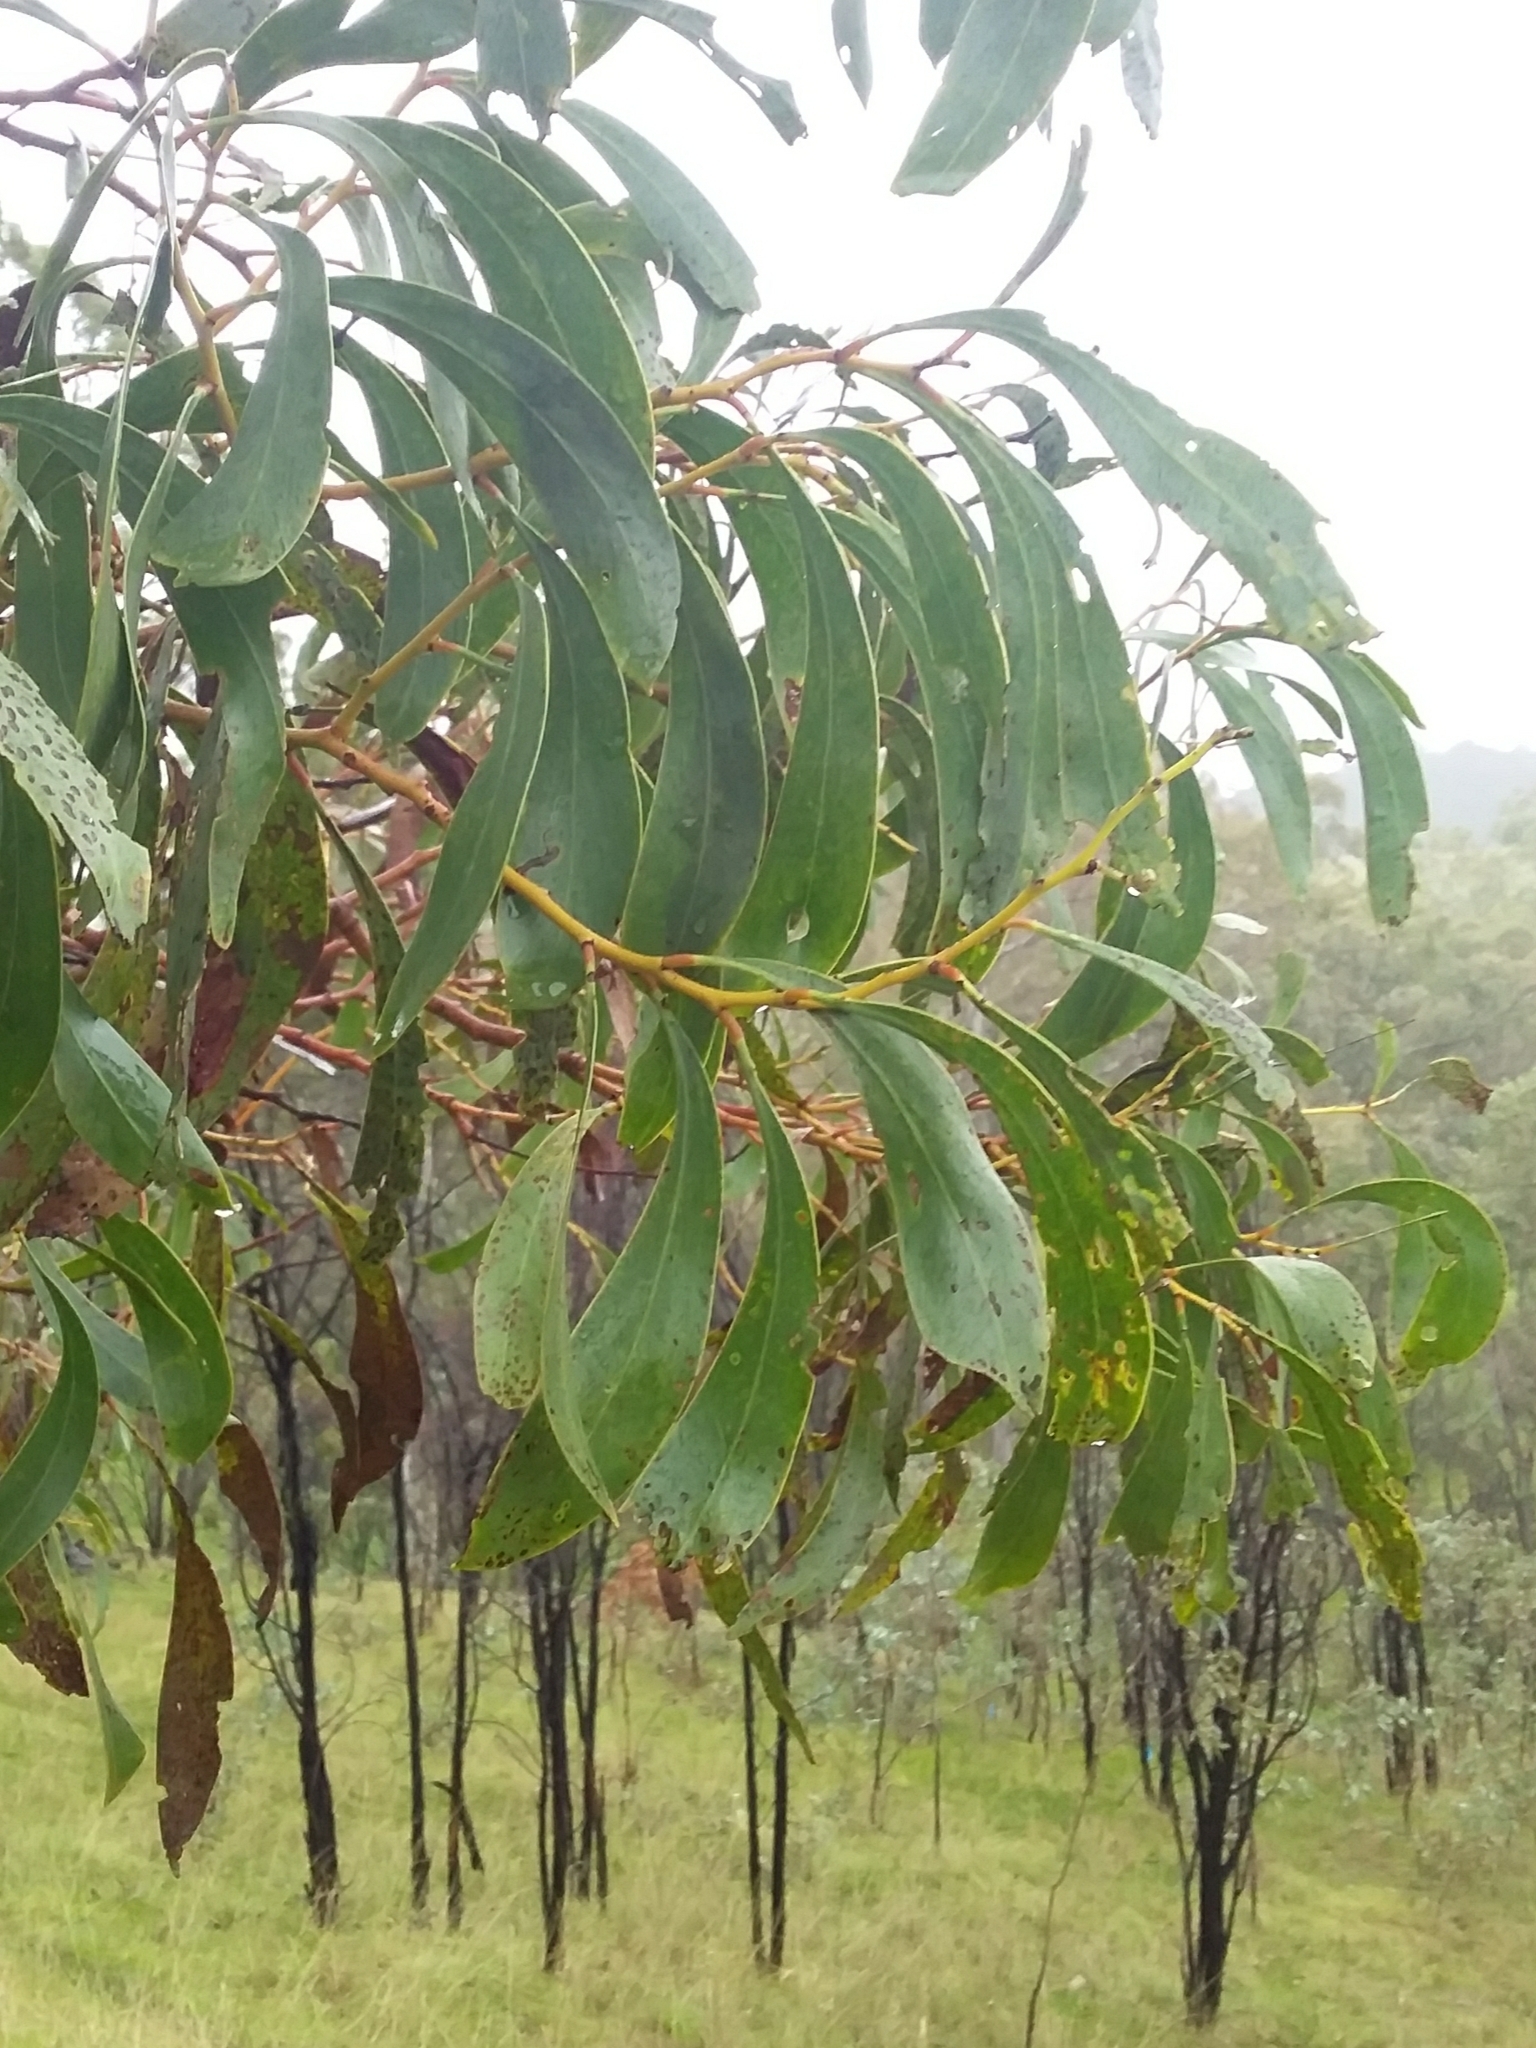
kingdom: Plantae
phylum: Tracheophyta
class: Magnoliopsida
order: Fabales
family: Fabaceae
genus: Acacia
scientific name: Acacia pycnantha
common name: Golden wattle
